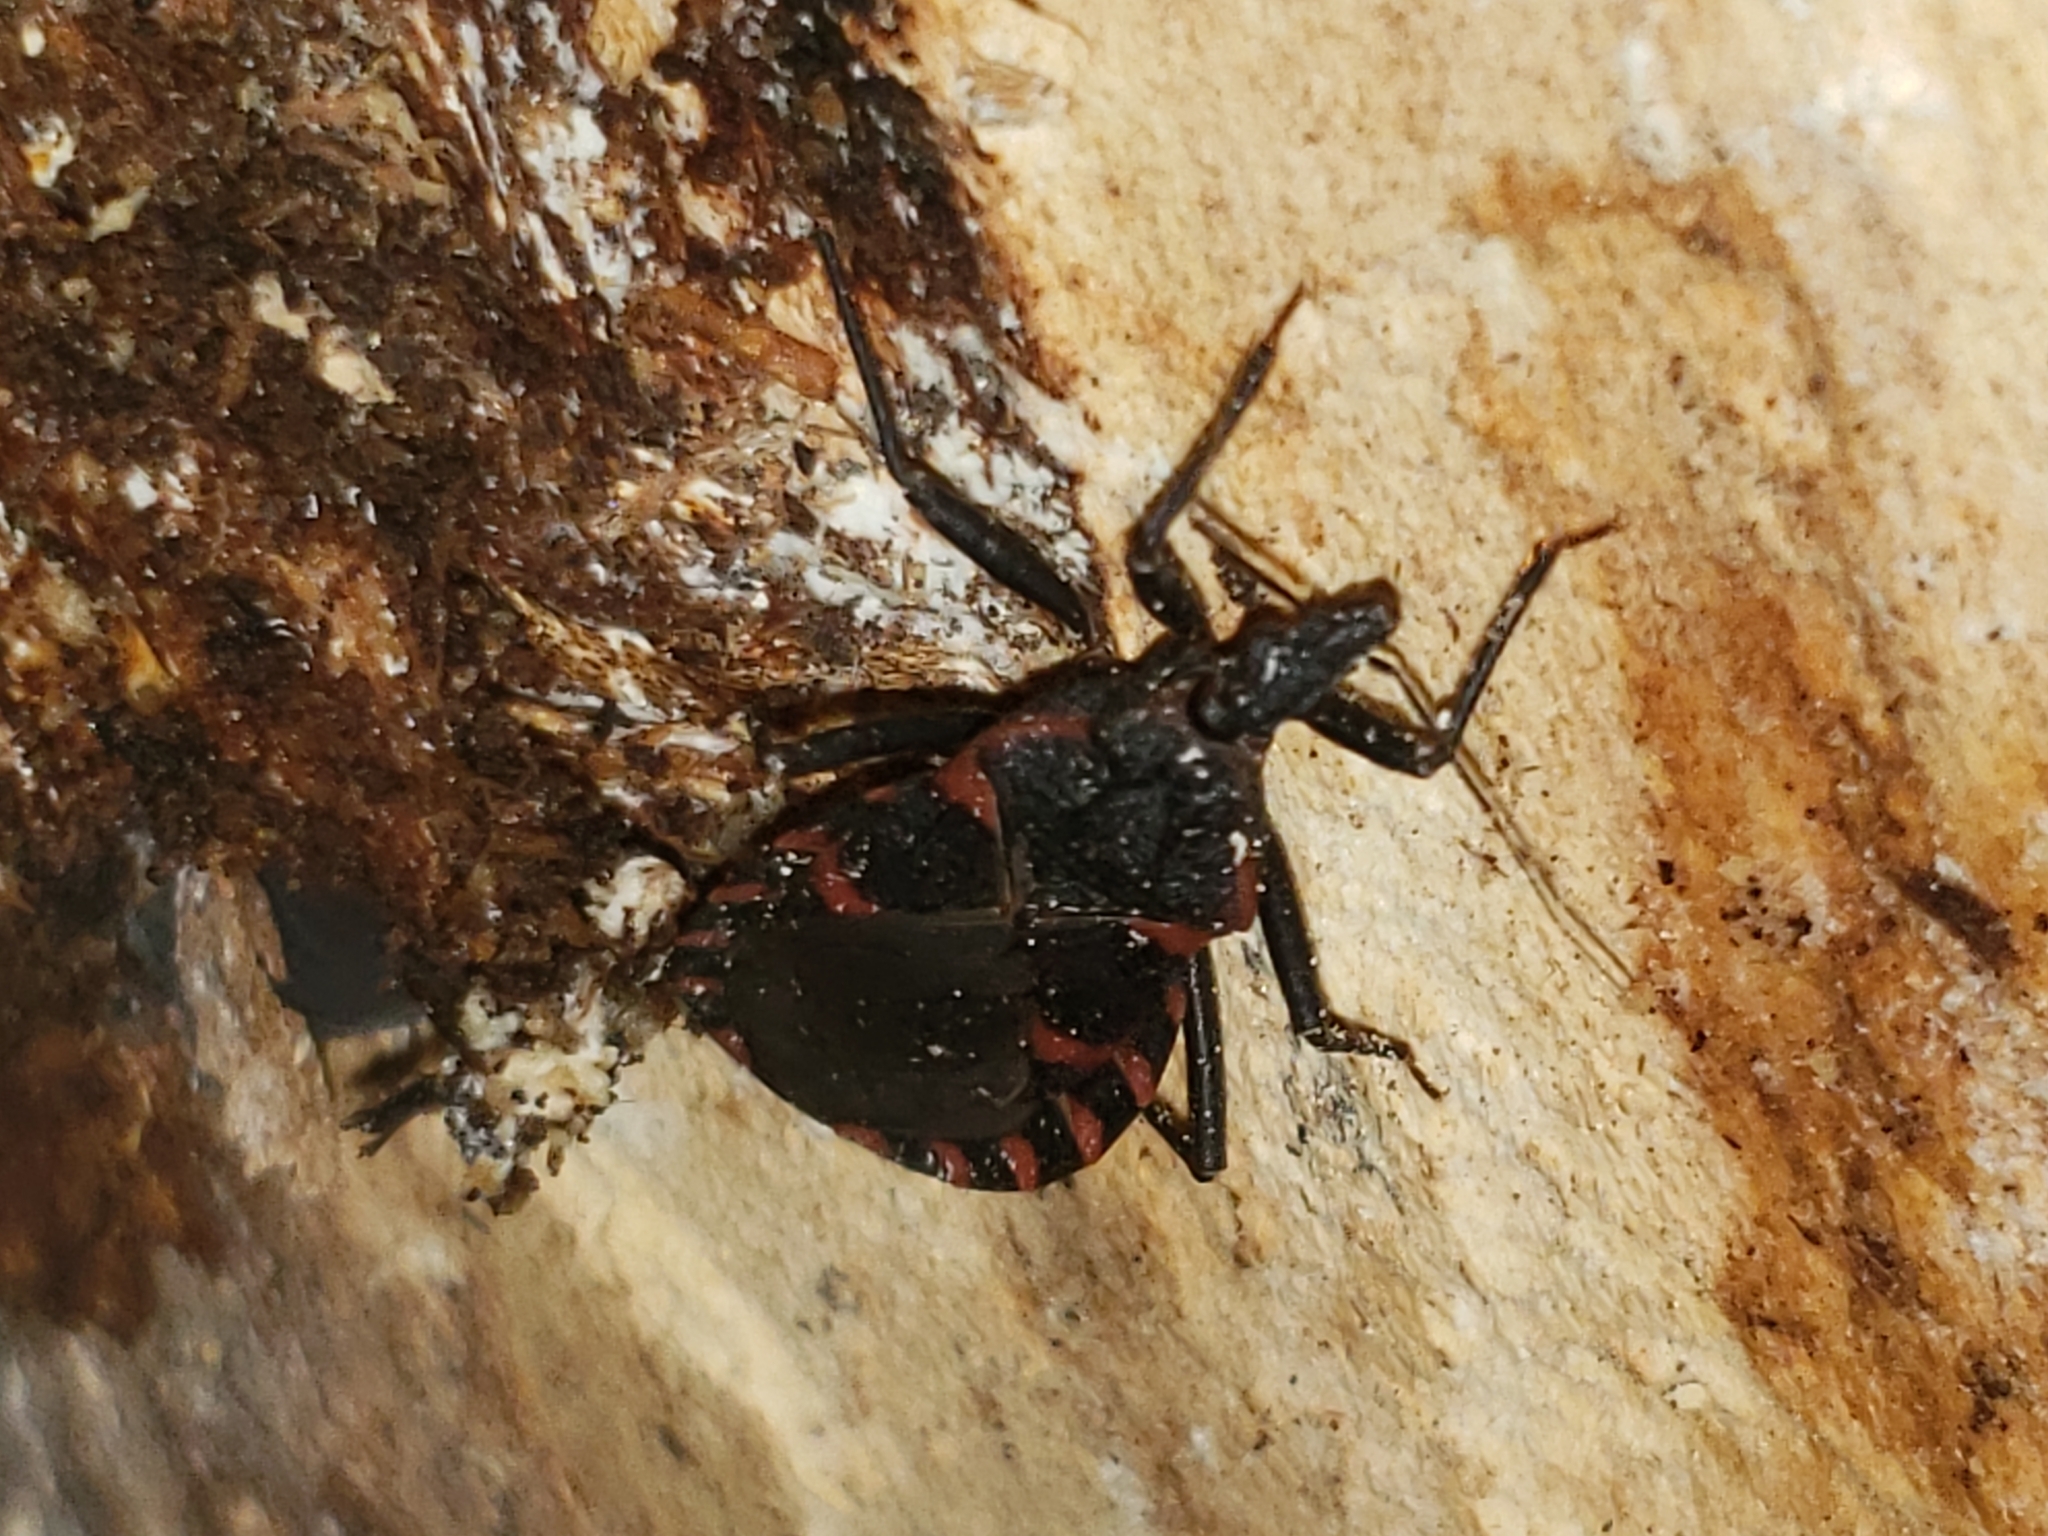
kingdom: Animalia
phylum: Arthropoda
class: Insecta
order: Hemiptera
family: Reduviidae
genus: Triatoma
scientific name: Triatoma sanguisuga
